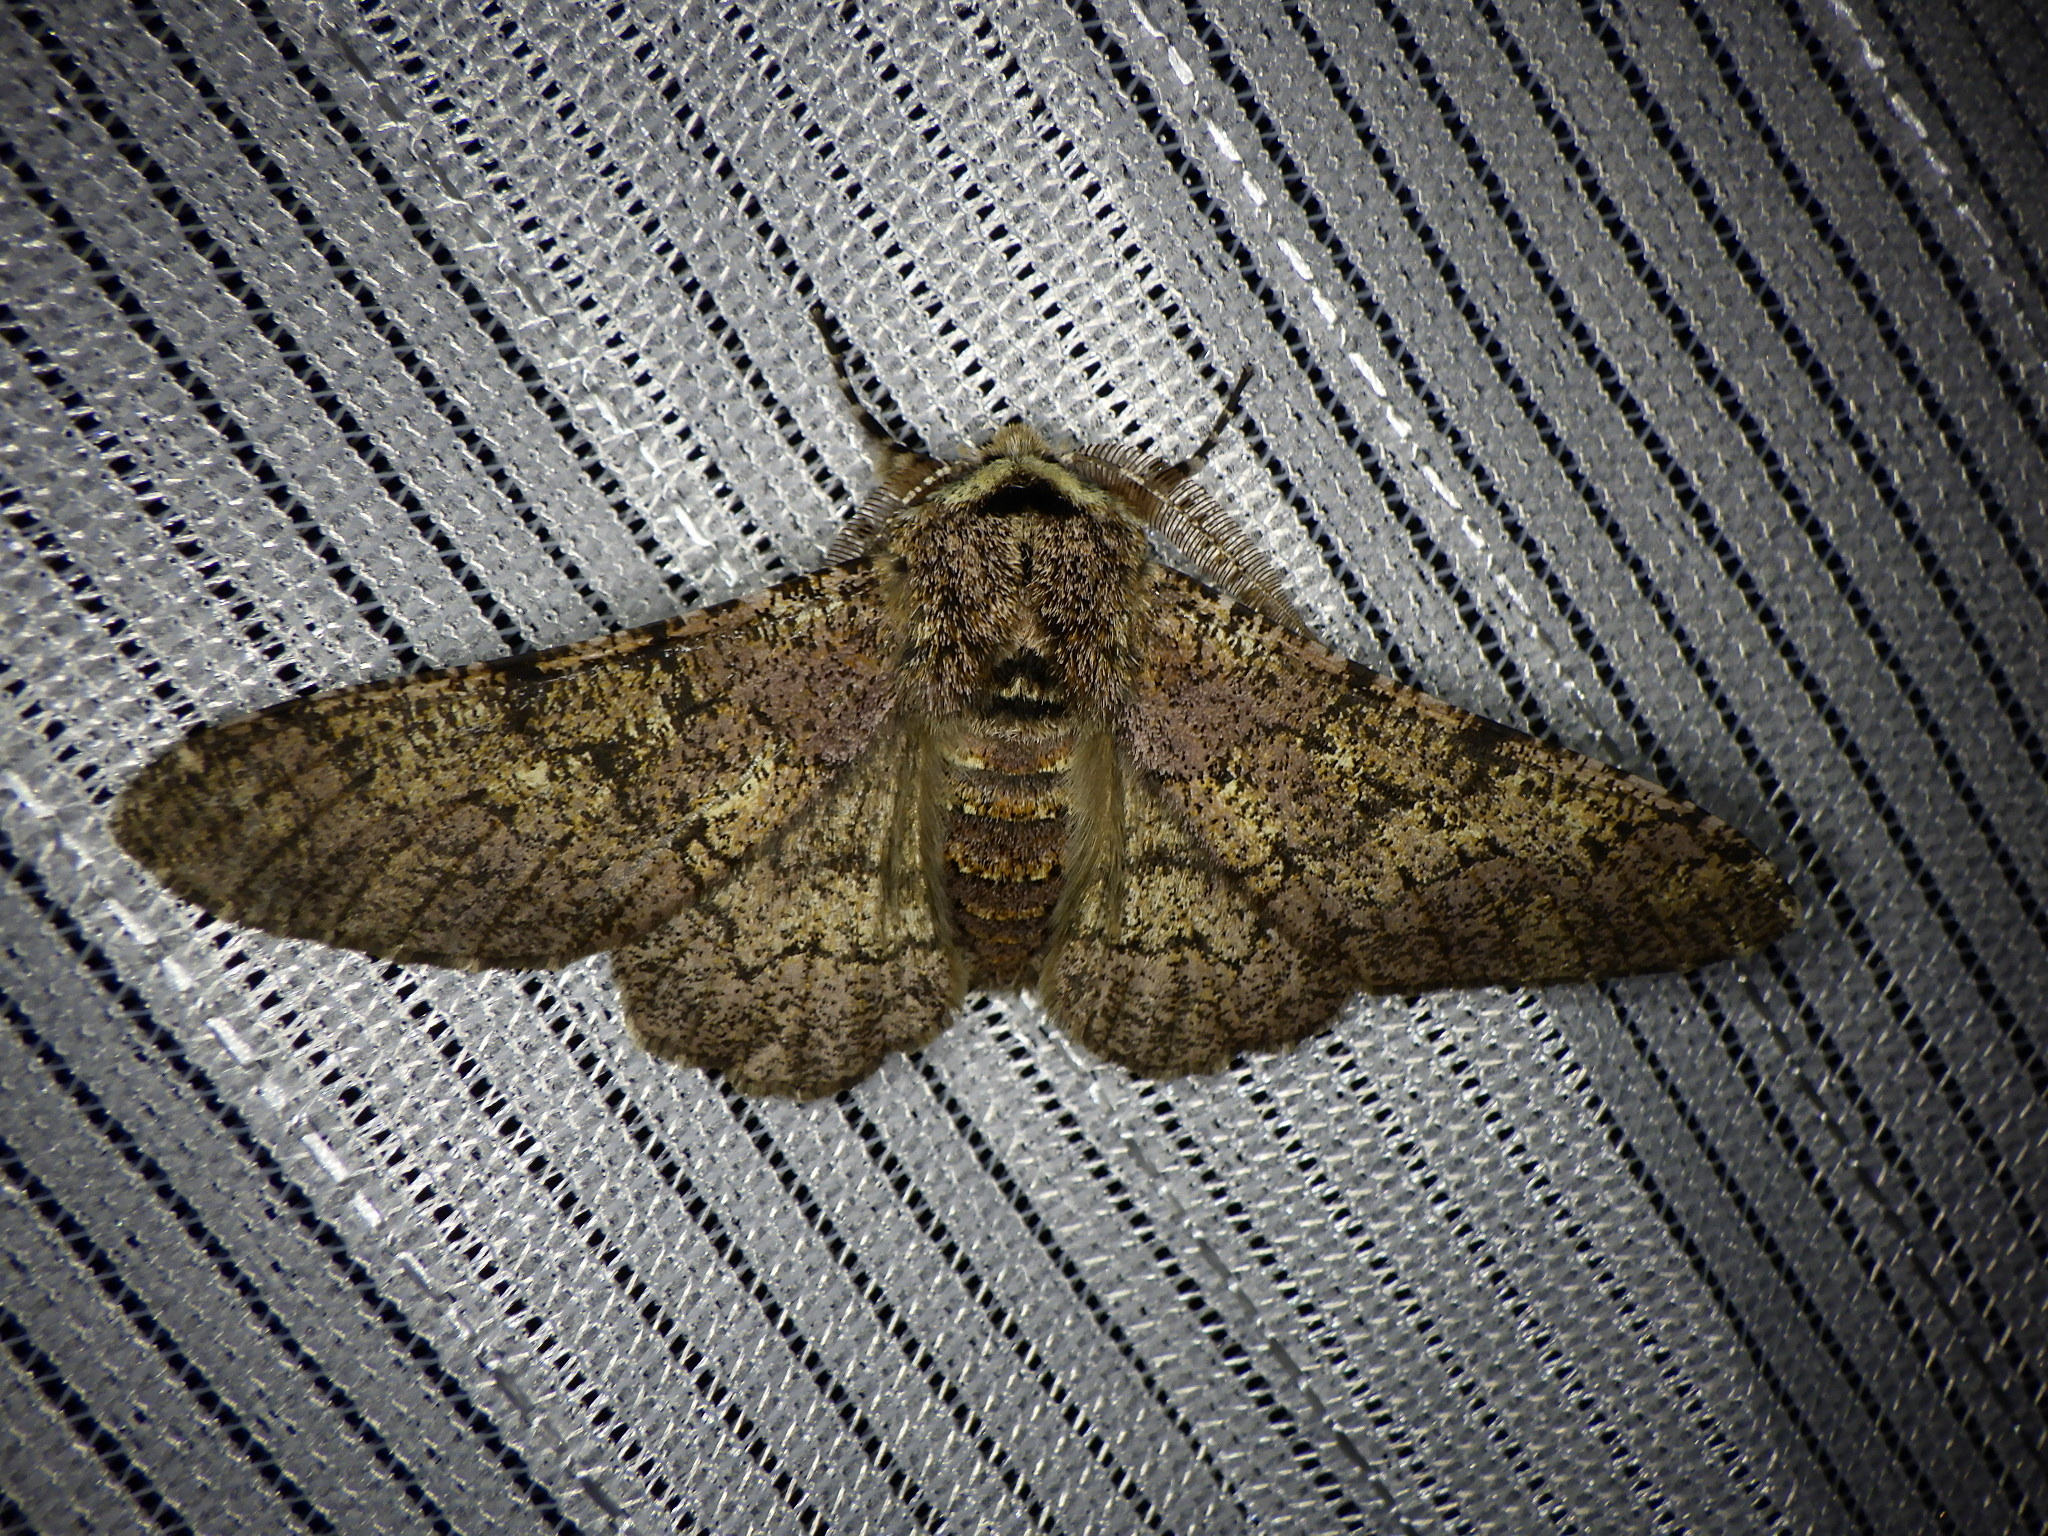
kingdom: Animalia
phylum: Arthropoda
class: Insecta
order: Lepidoptera
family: Geometridae
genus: Biston
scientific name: Biston robustum
